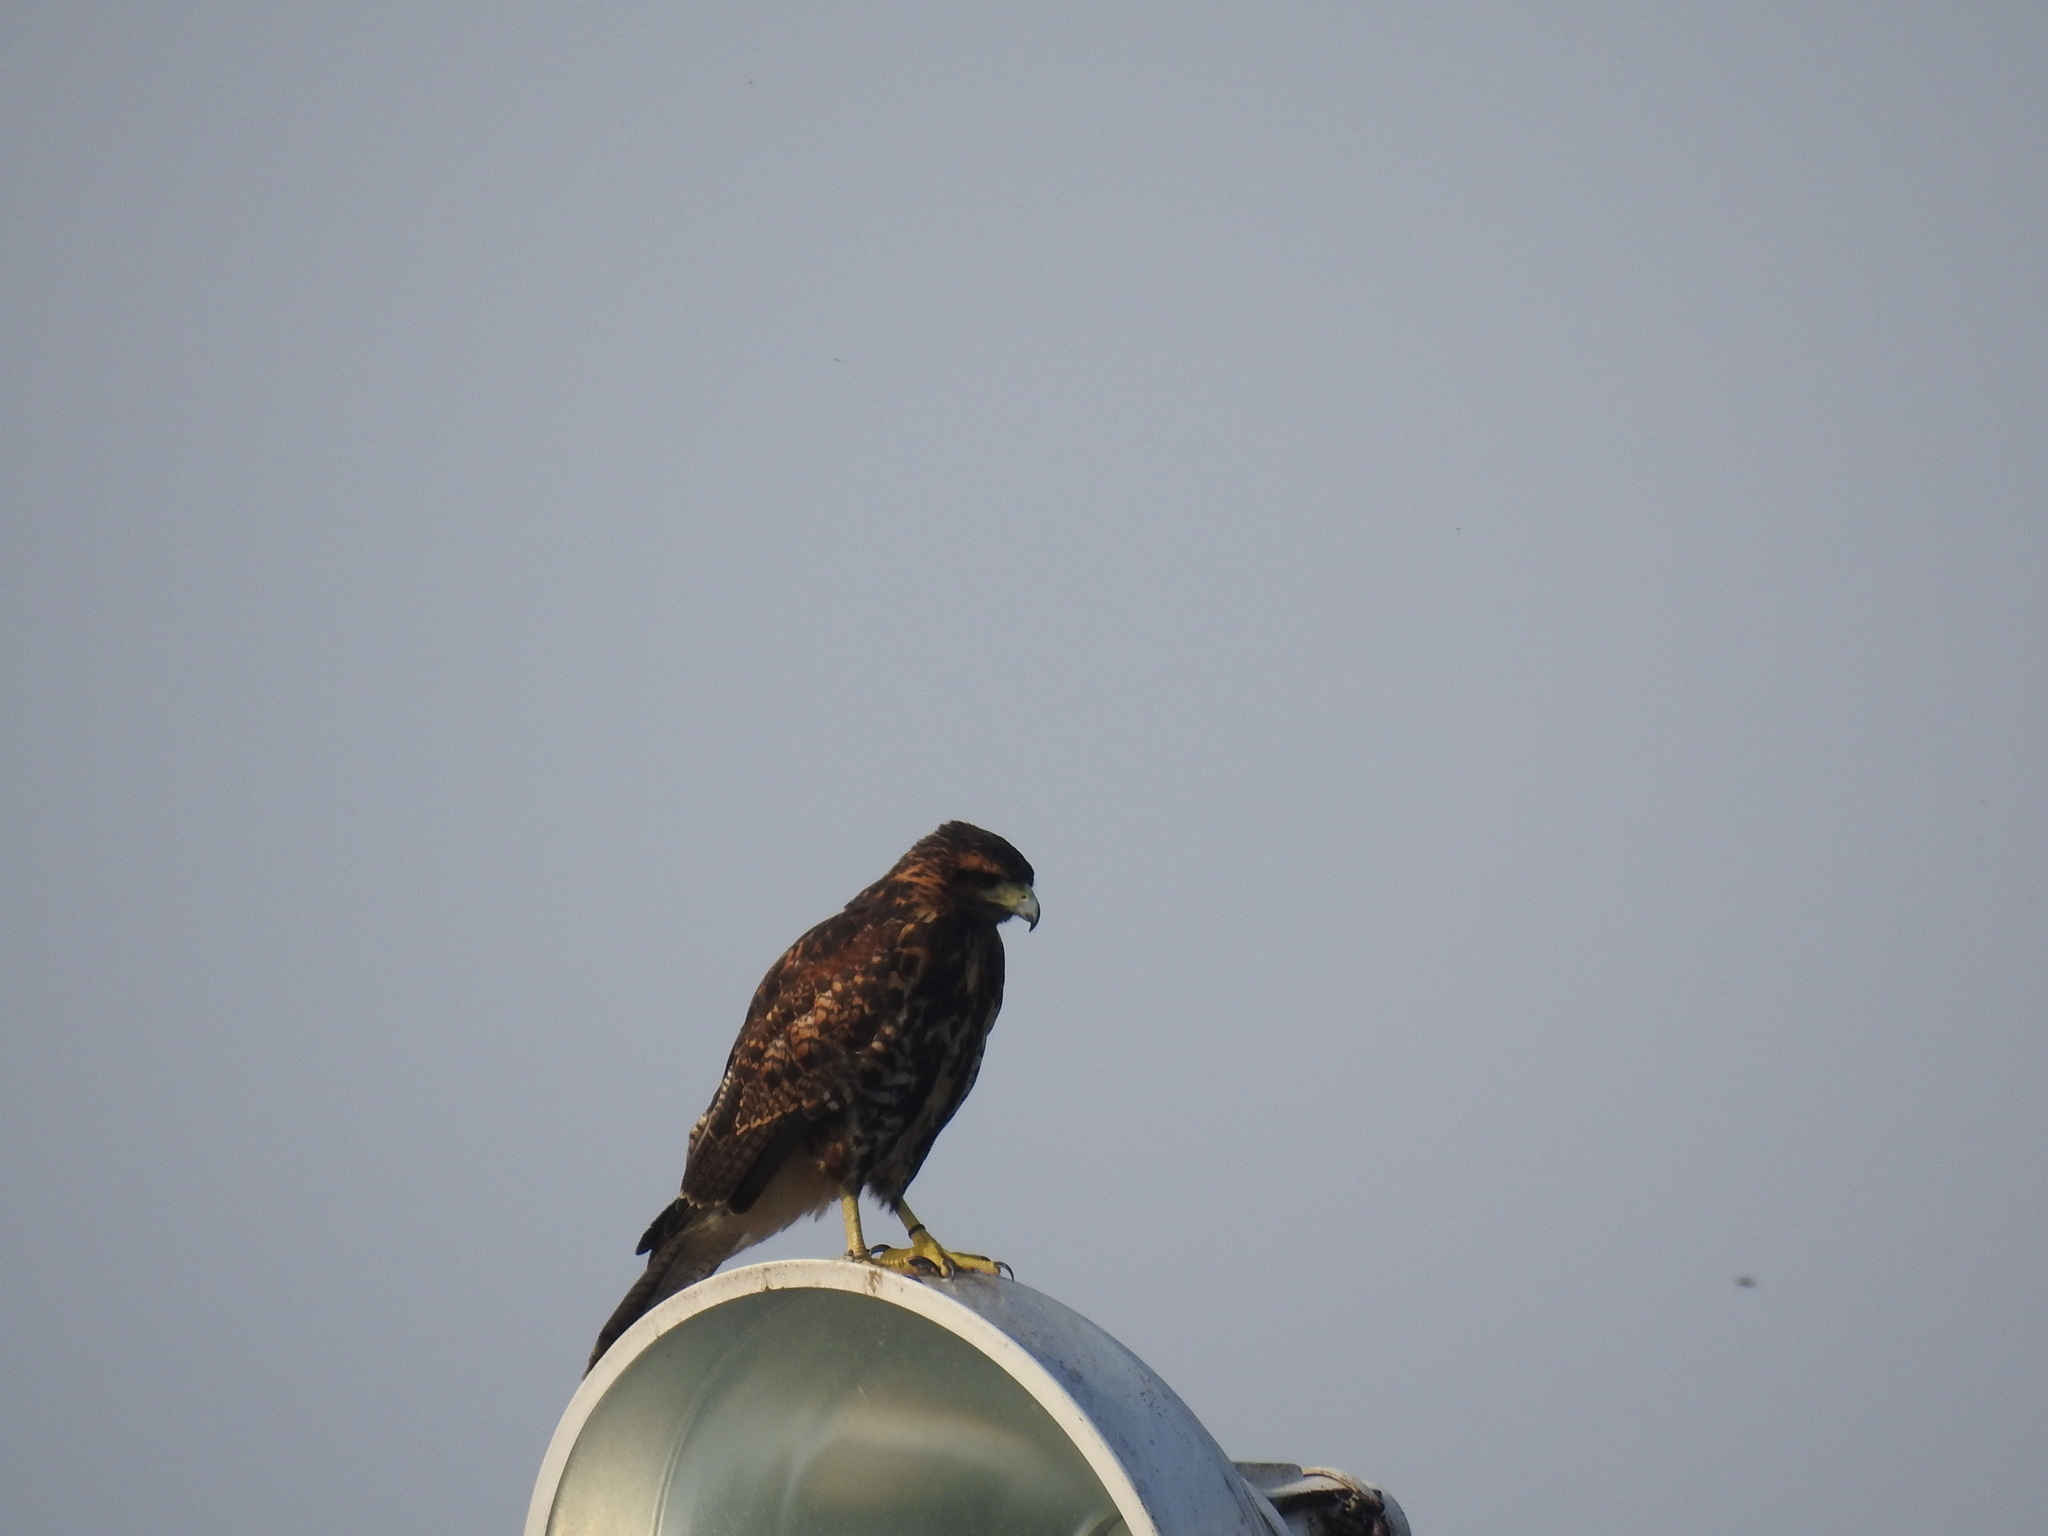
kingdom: Animalia
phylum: Chordata
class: Aves
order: Accipitriformes
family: Accipitridae
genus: Parabuteo
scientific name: Parabuteo unicinctus
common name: Harris's hawk
